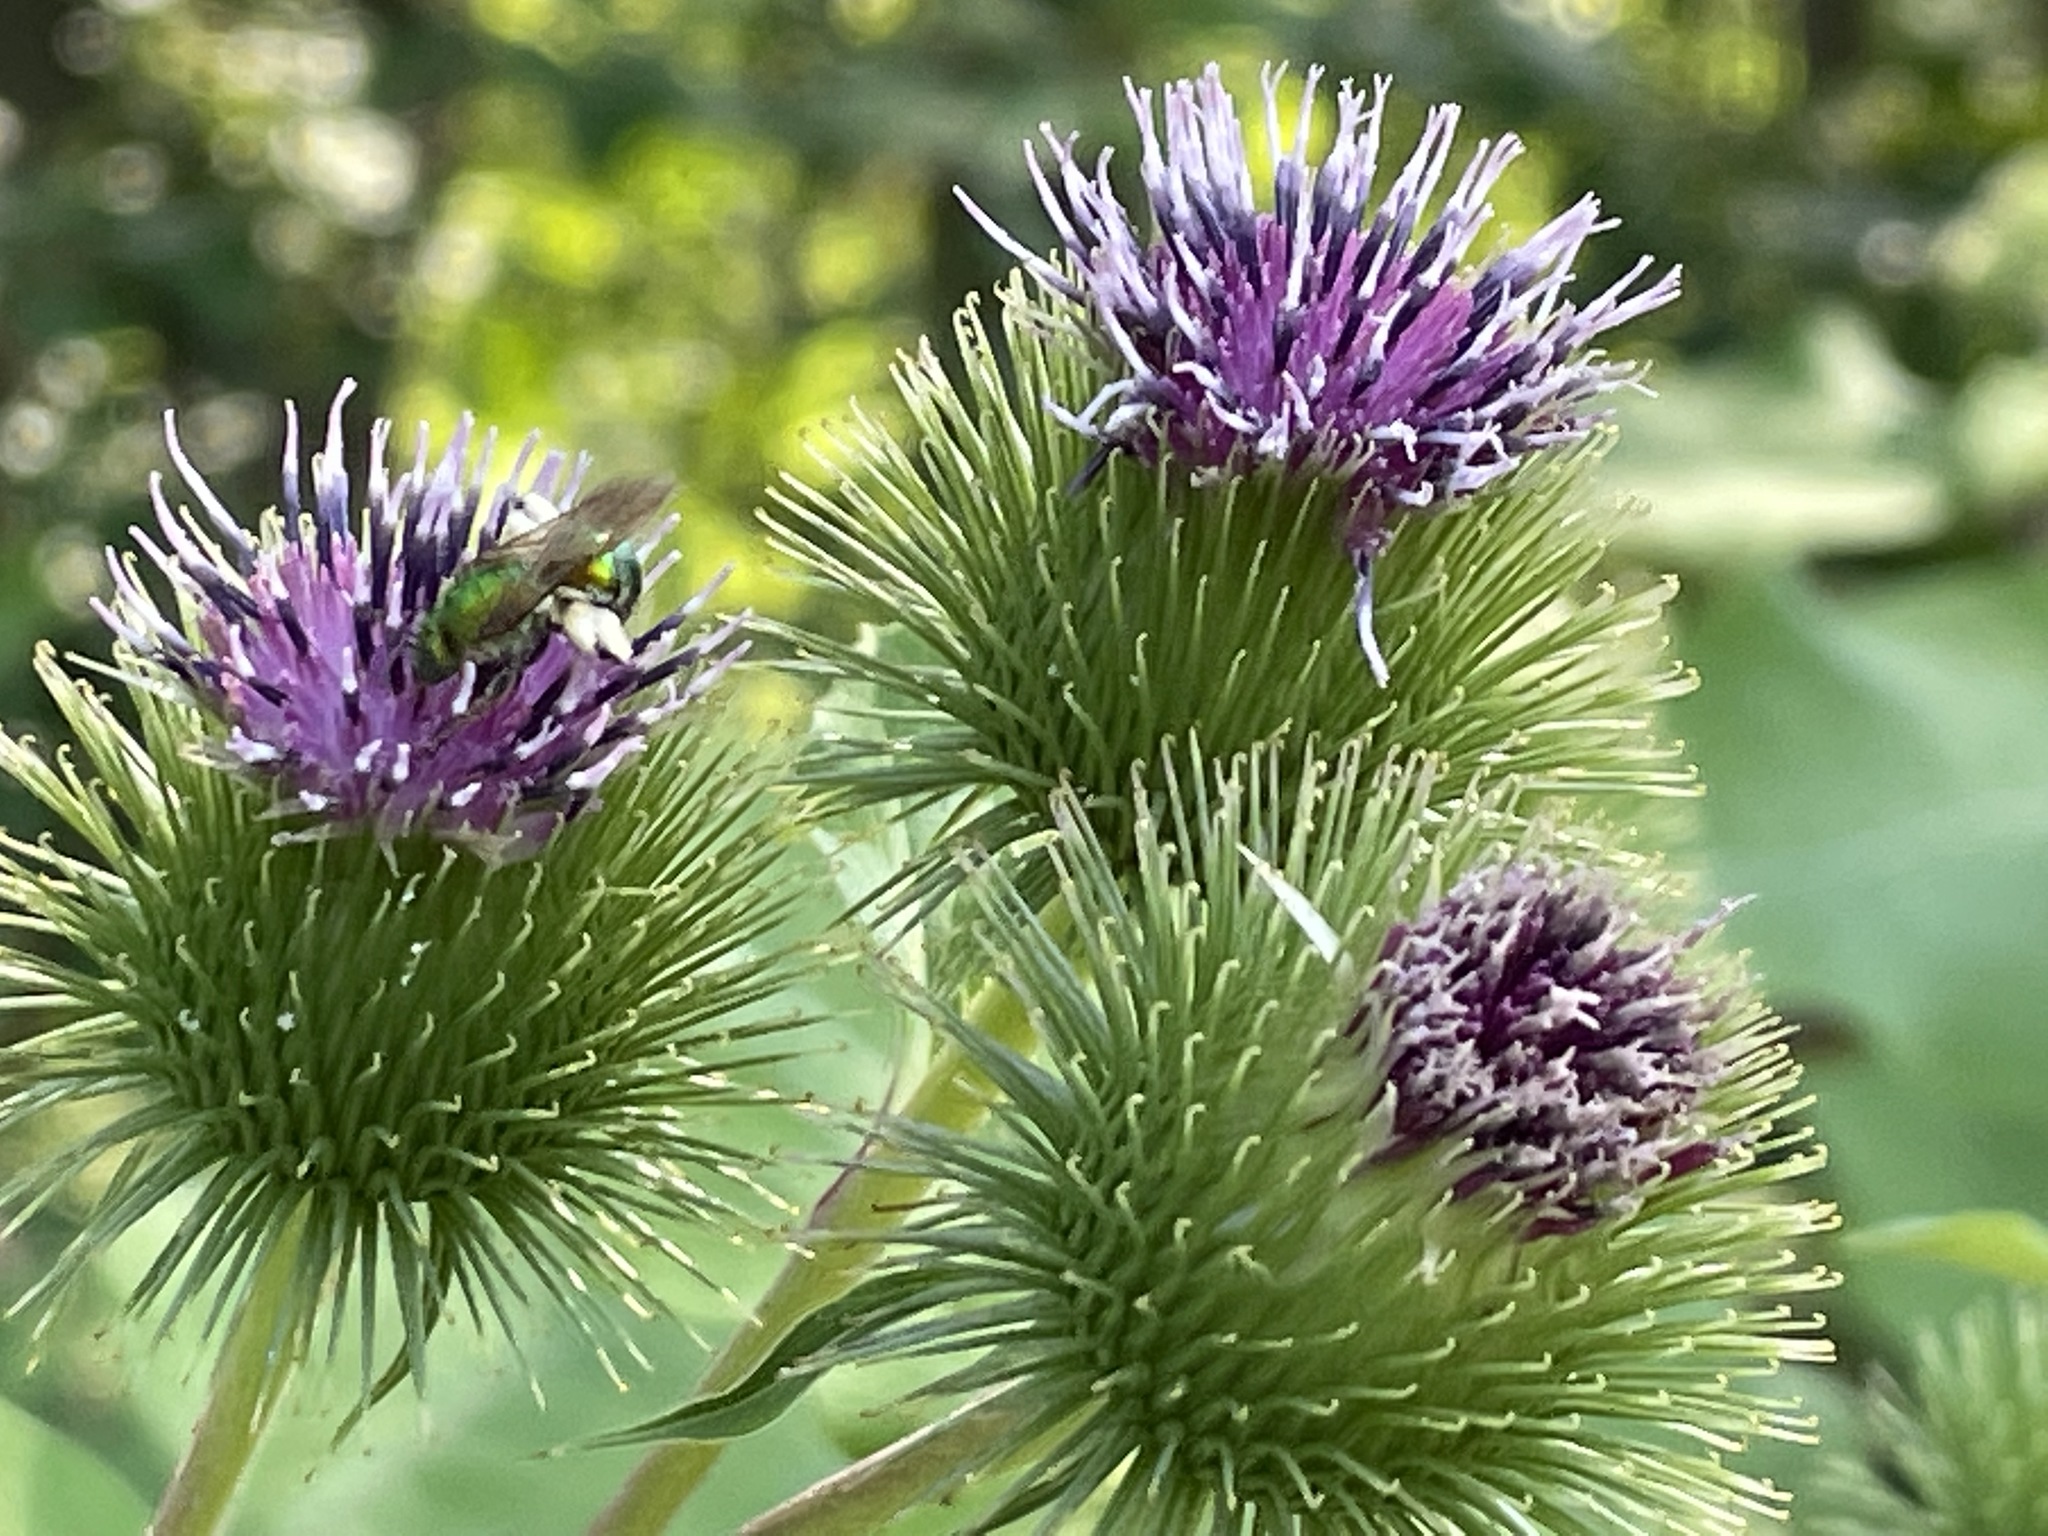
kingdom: Plantae
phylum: Tracheophyta
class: Magnoliopsida
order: Asterales
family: Asteraceae
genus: Arctium
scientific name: Arctium lappa
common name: Greater burdock
